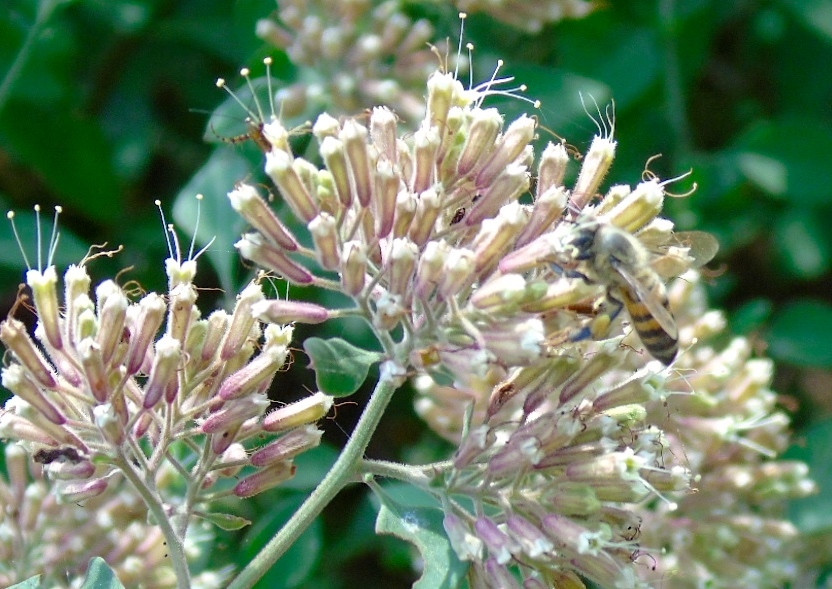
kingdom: Plantae
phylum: Tracheophyta
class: Magnoliopsida
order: Caryophyllales
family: Nyctaginaceae
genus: Salpianthus
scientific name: Salpianthus arenarius
